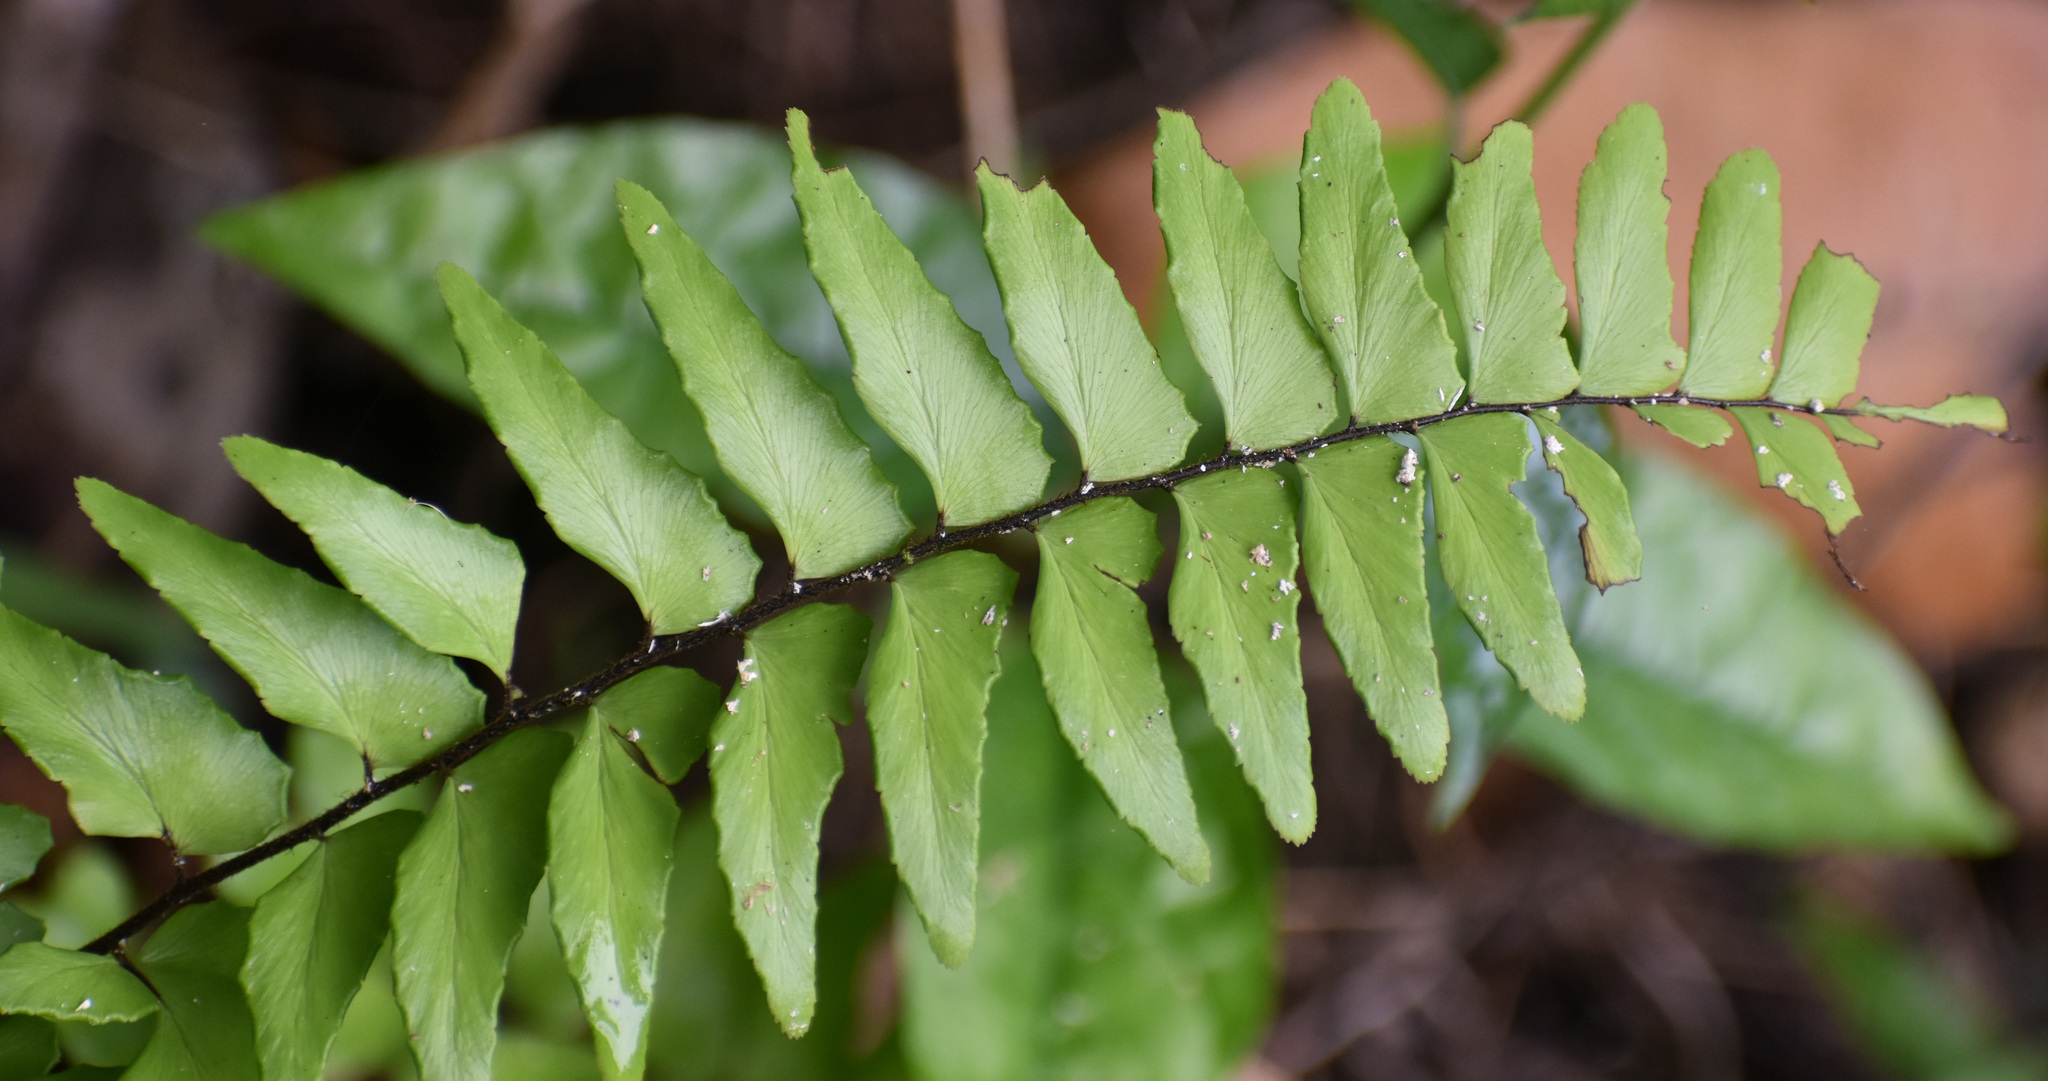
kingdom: Plantae
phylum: Tracheophyta
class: Polypodiopsida
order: Polypodiales
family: Pteridaceae
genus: Adiantum
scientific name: Adiantum latifolium
